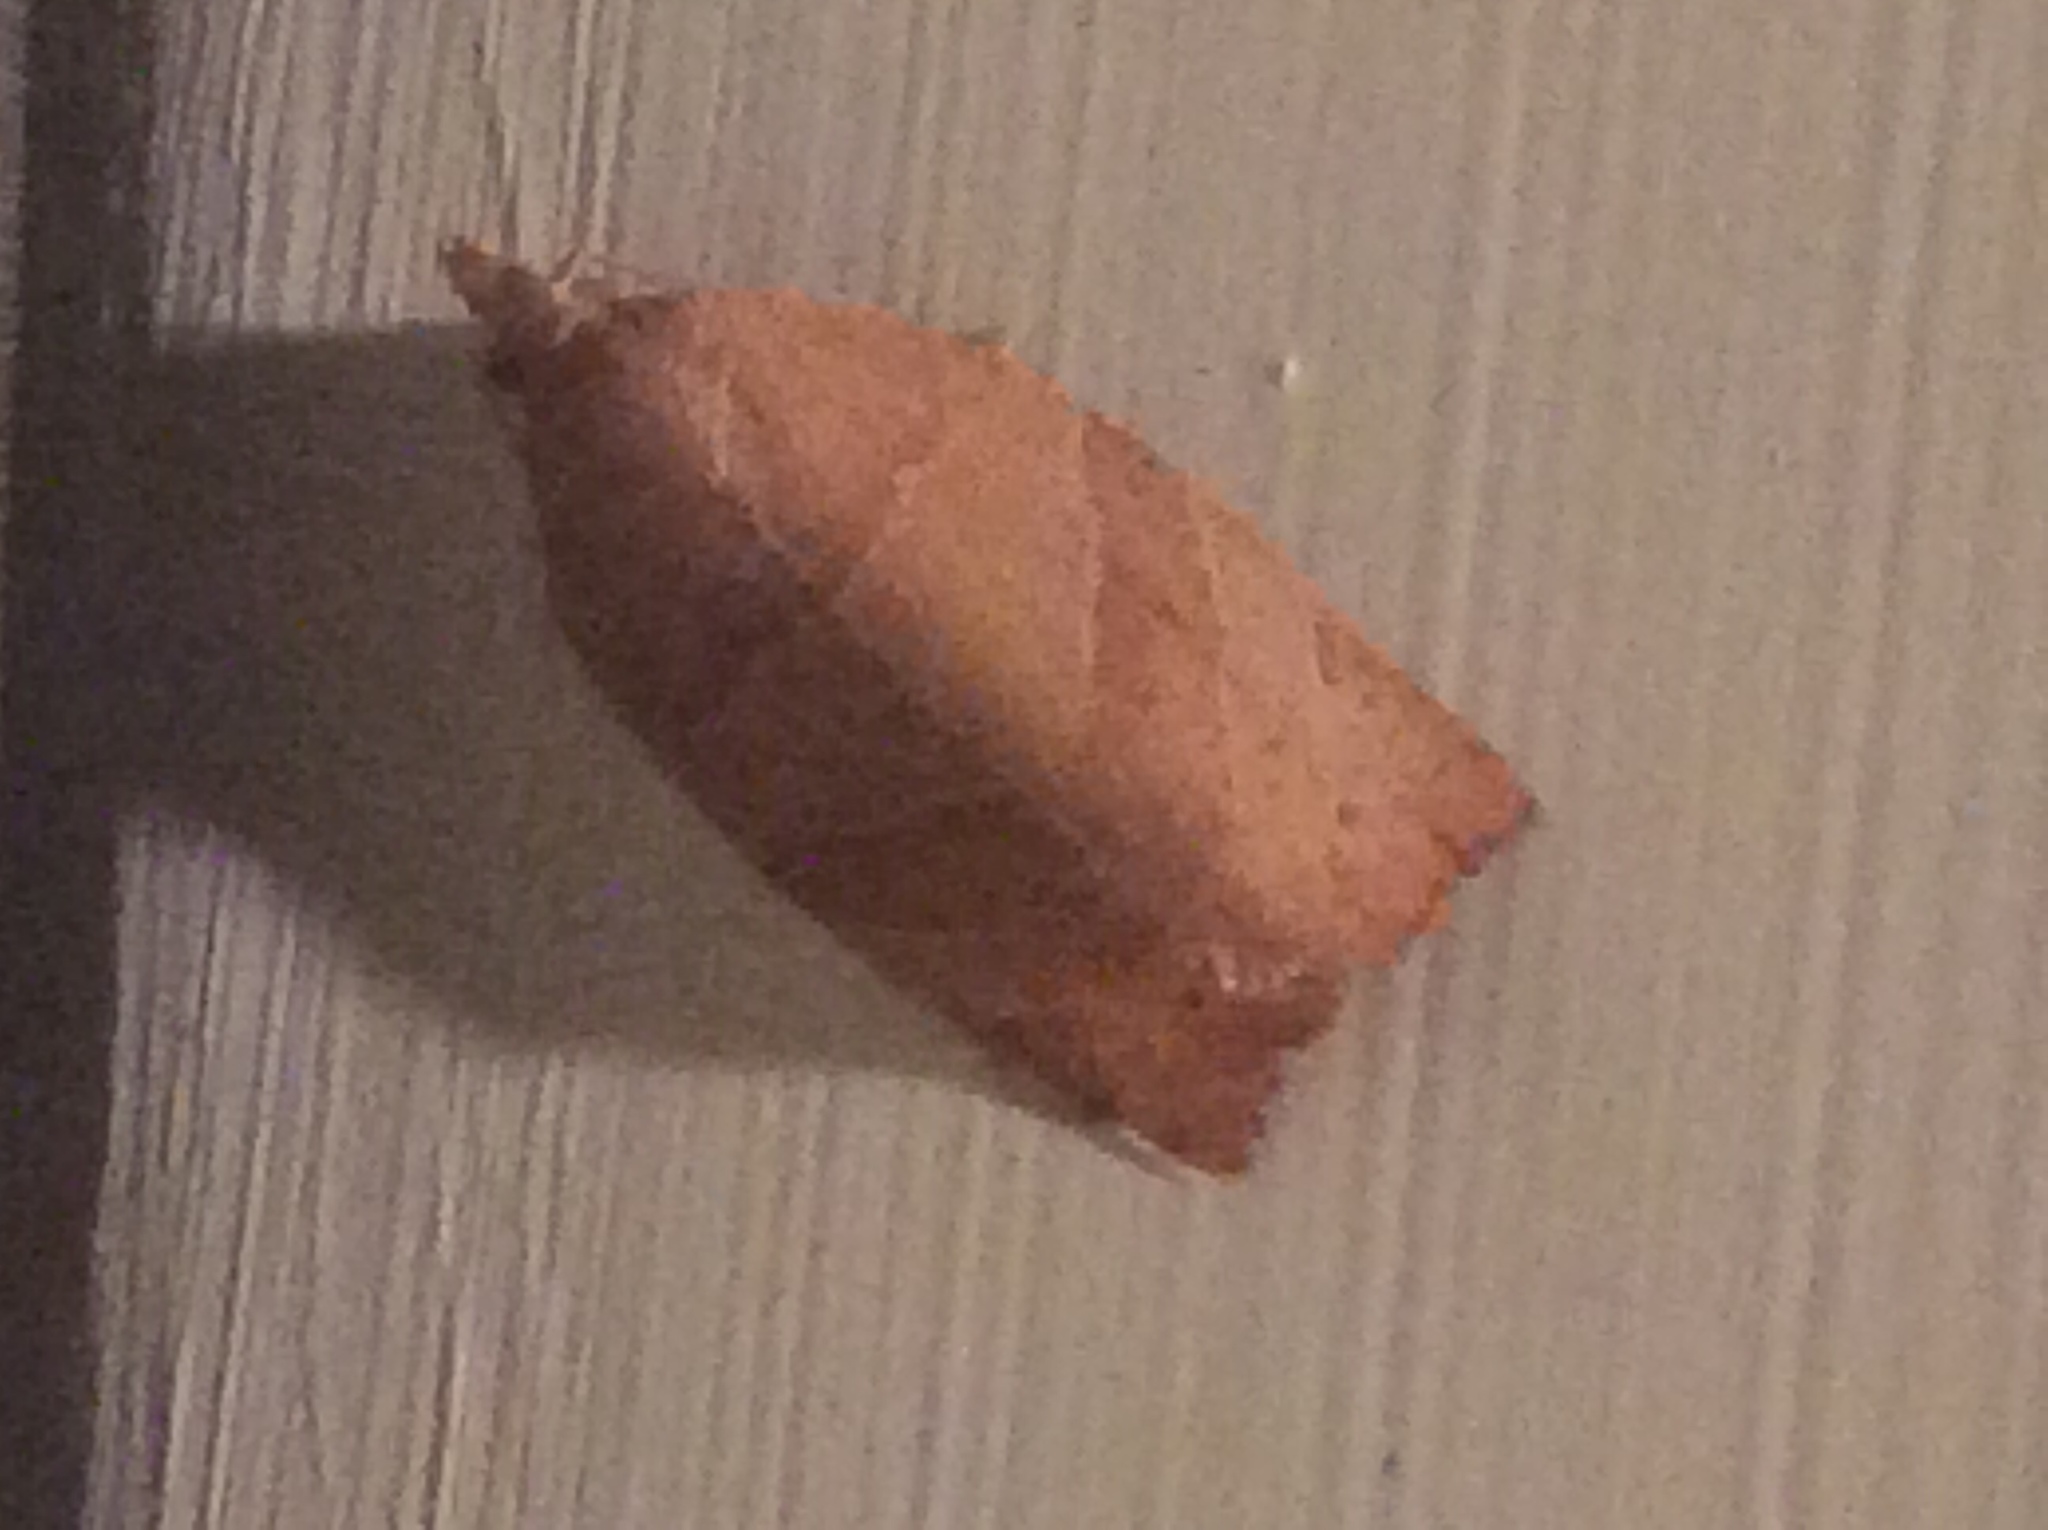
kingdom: Animalia
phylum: Arthropoda
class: Insecta
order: Lepidoptera
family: Tortricidae
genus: Pandemis
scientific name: Pandemis limitata
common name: Three-lined leafroller moth
